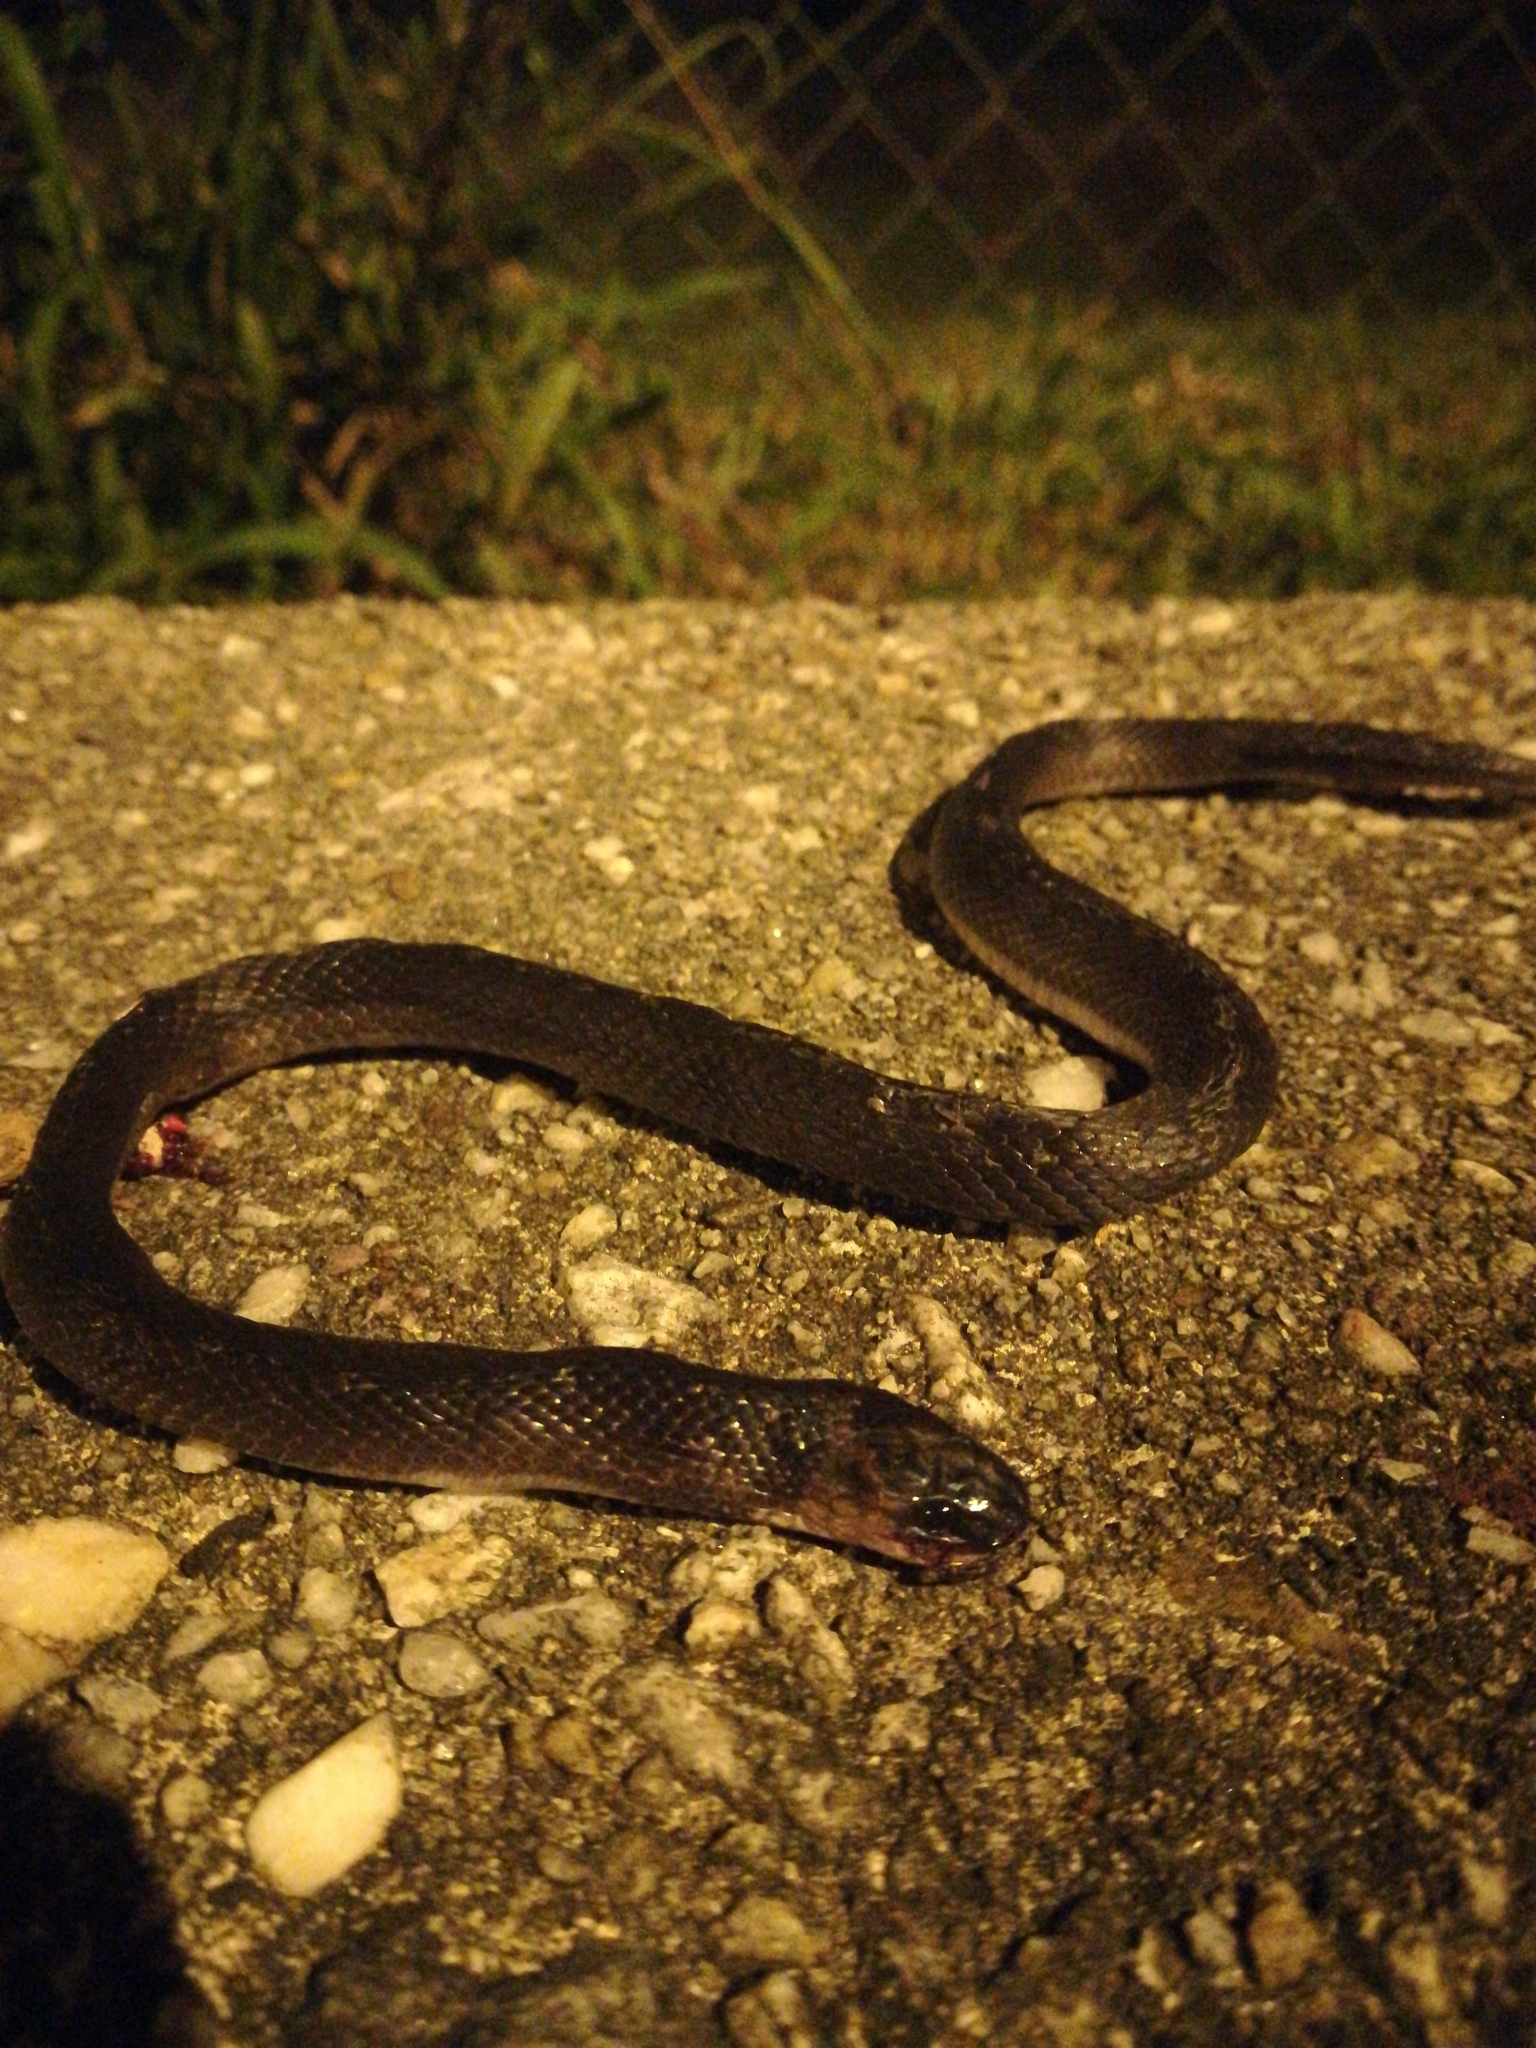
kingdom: Animalia
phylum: Chordata
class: Squamata
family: Colubridae
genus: Ninia
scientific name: Ninia atrata
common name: Hallowell's coffee snake
